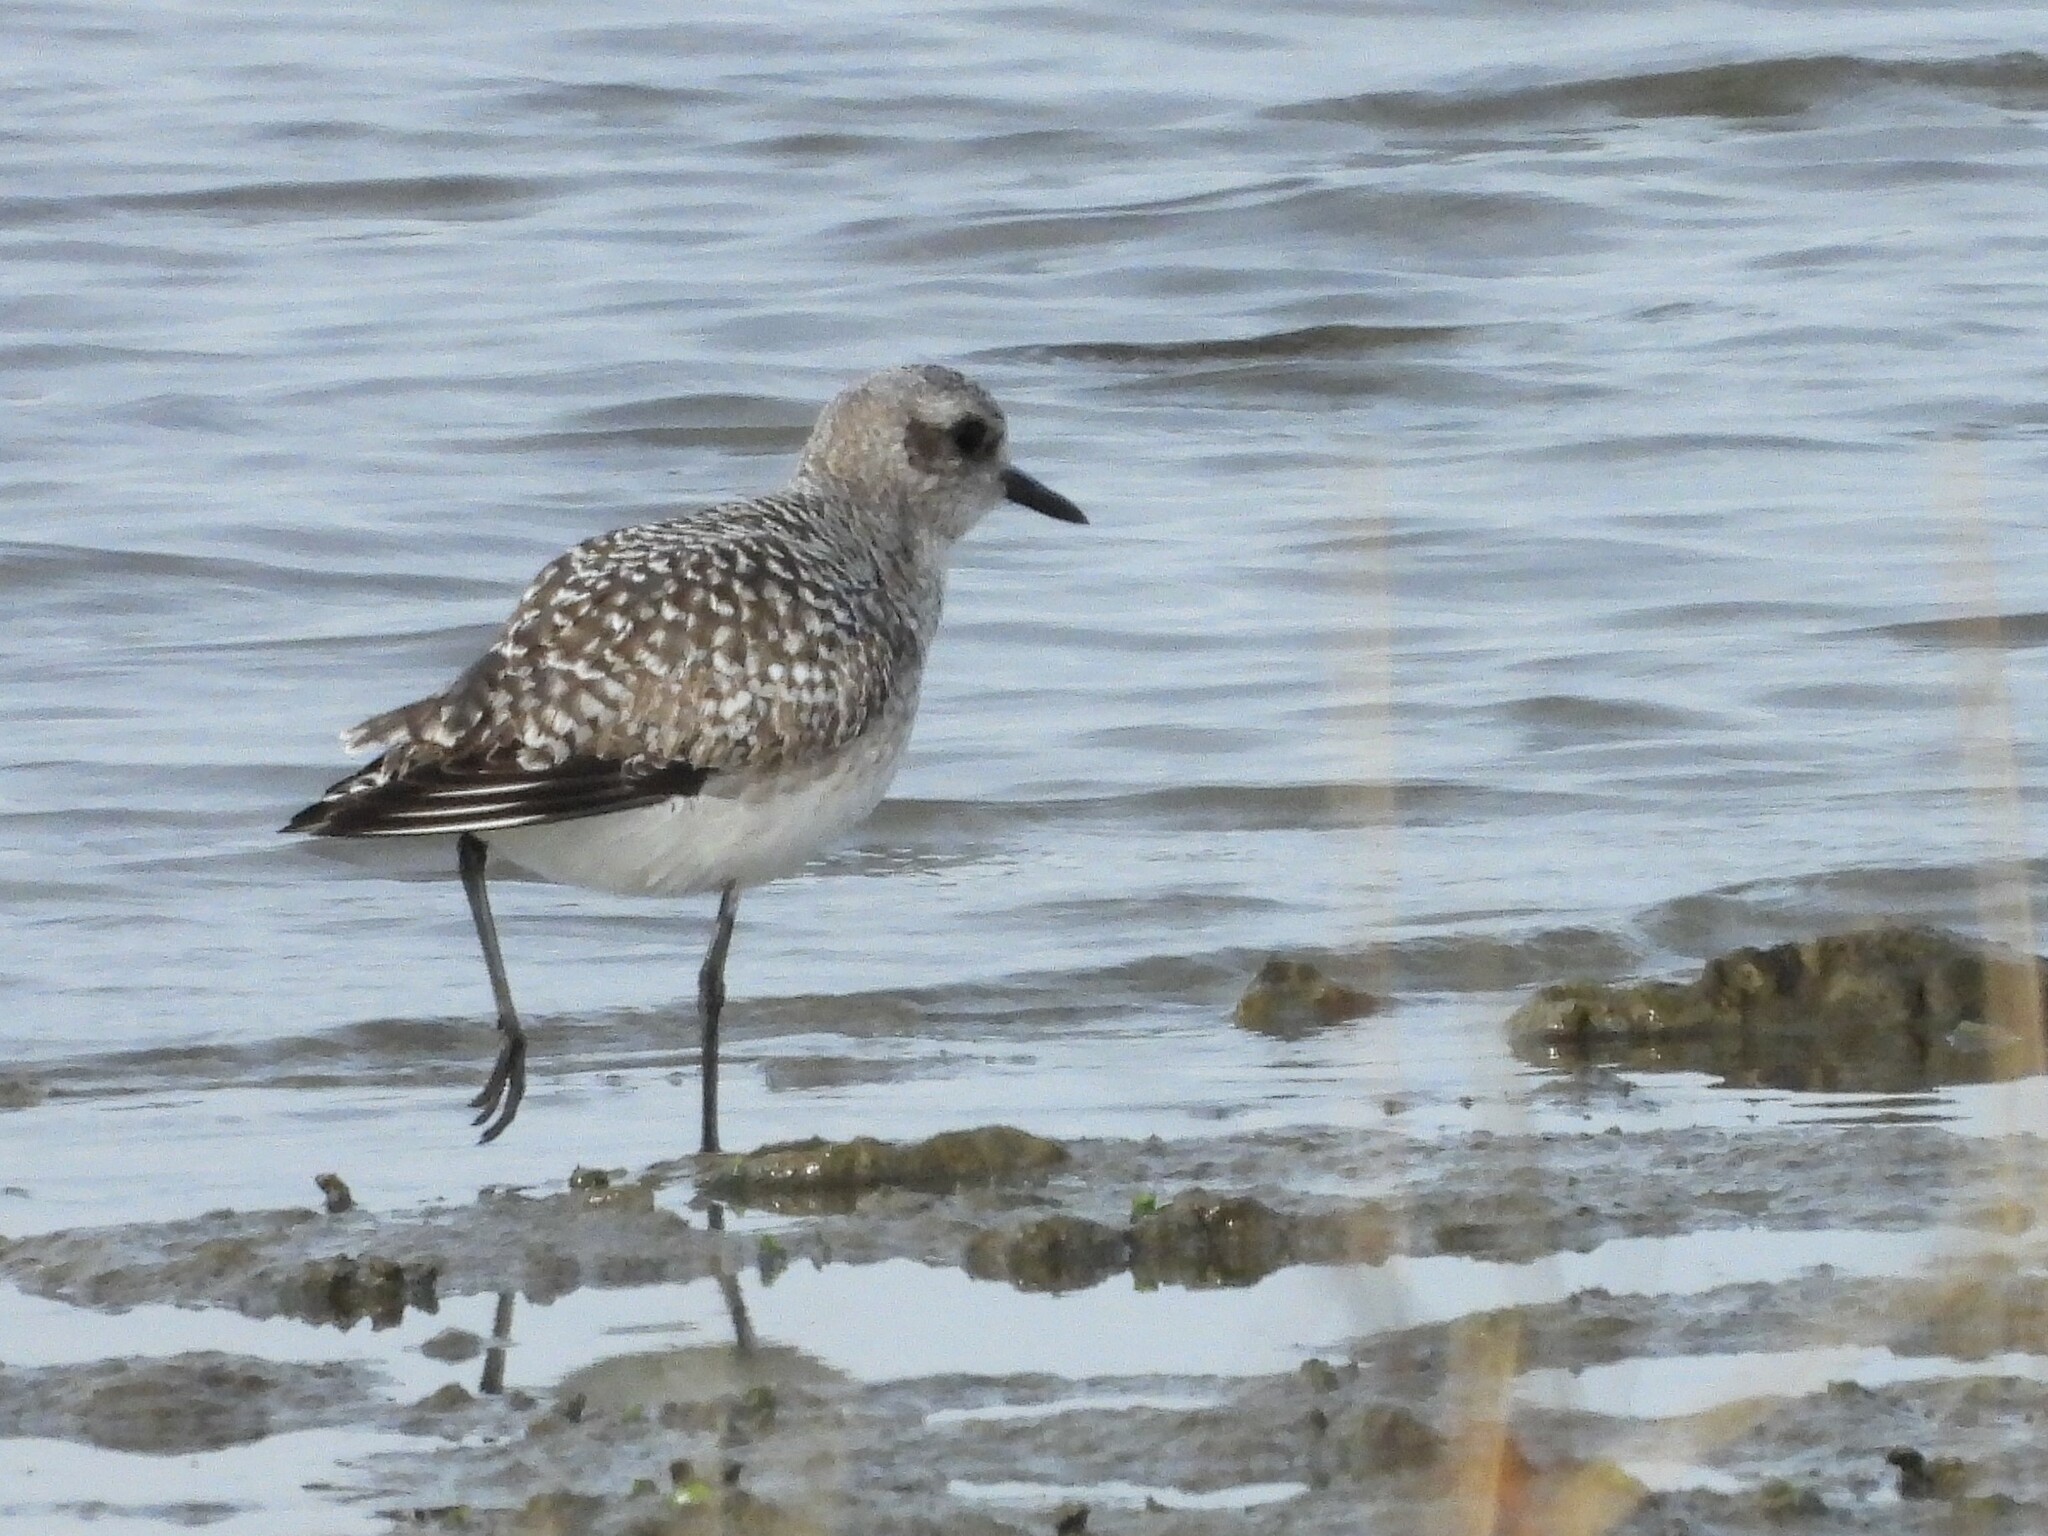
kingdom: Animalia
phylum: Chordata
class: Aves
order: Charadriiformes
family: Charadriidae
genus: Pluvialis
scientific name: Pluvialis squatarola
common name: Grey plover
